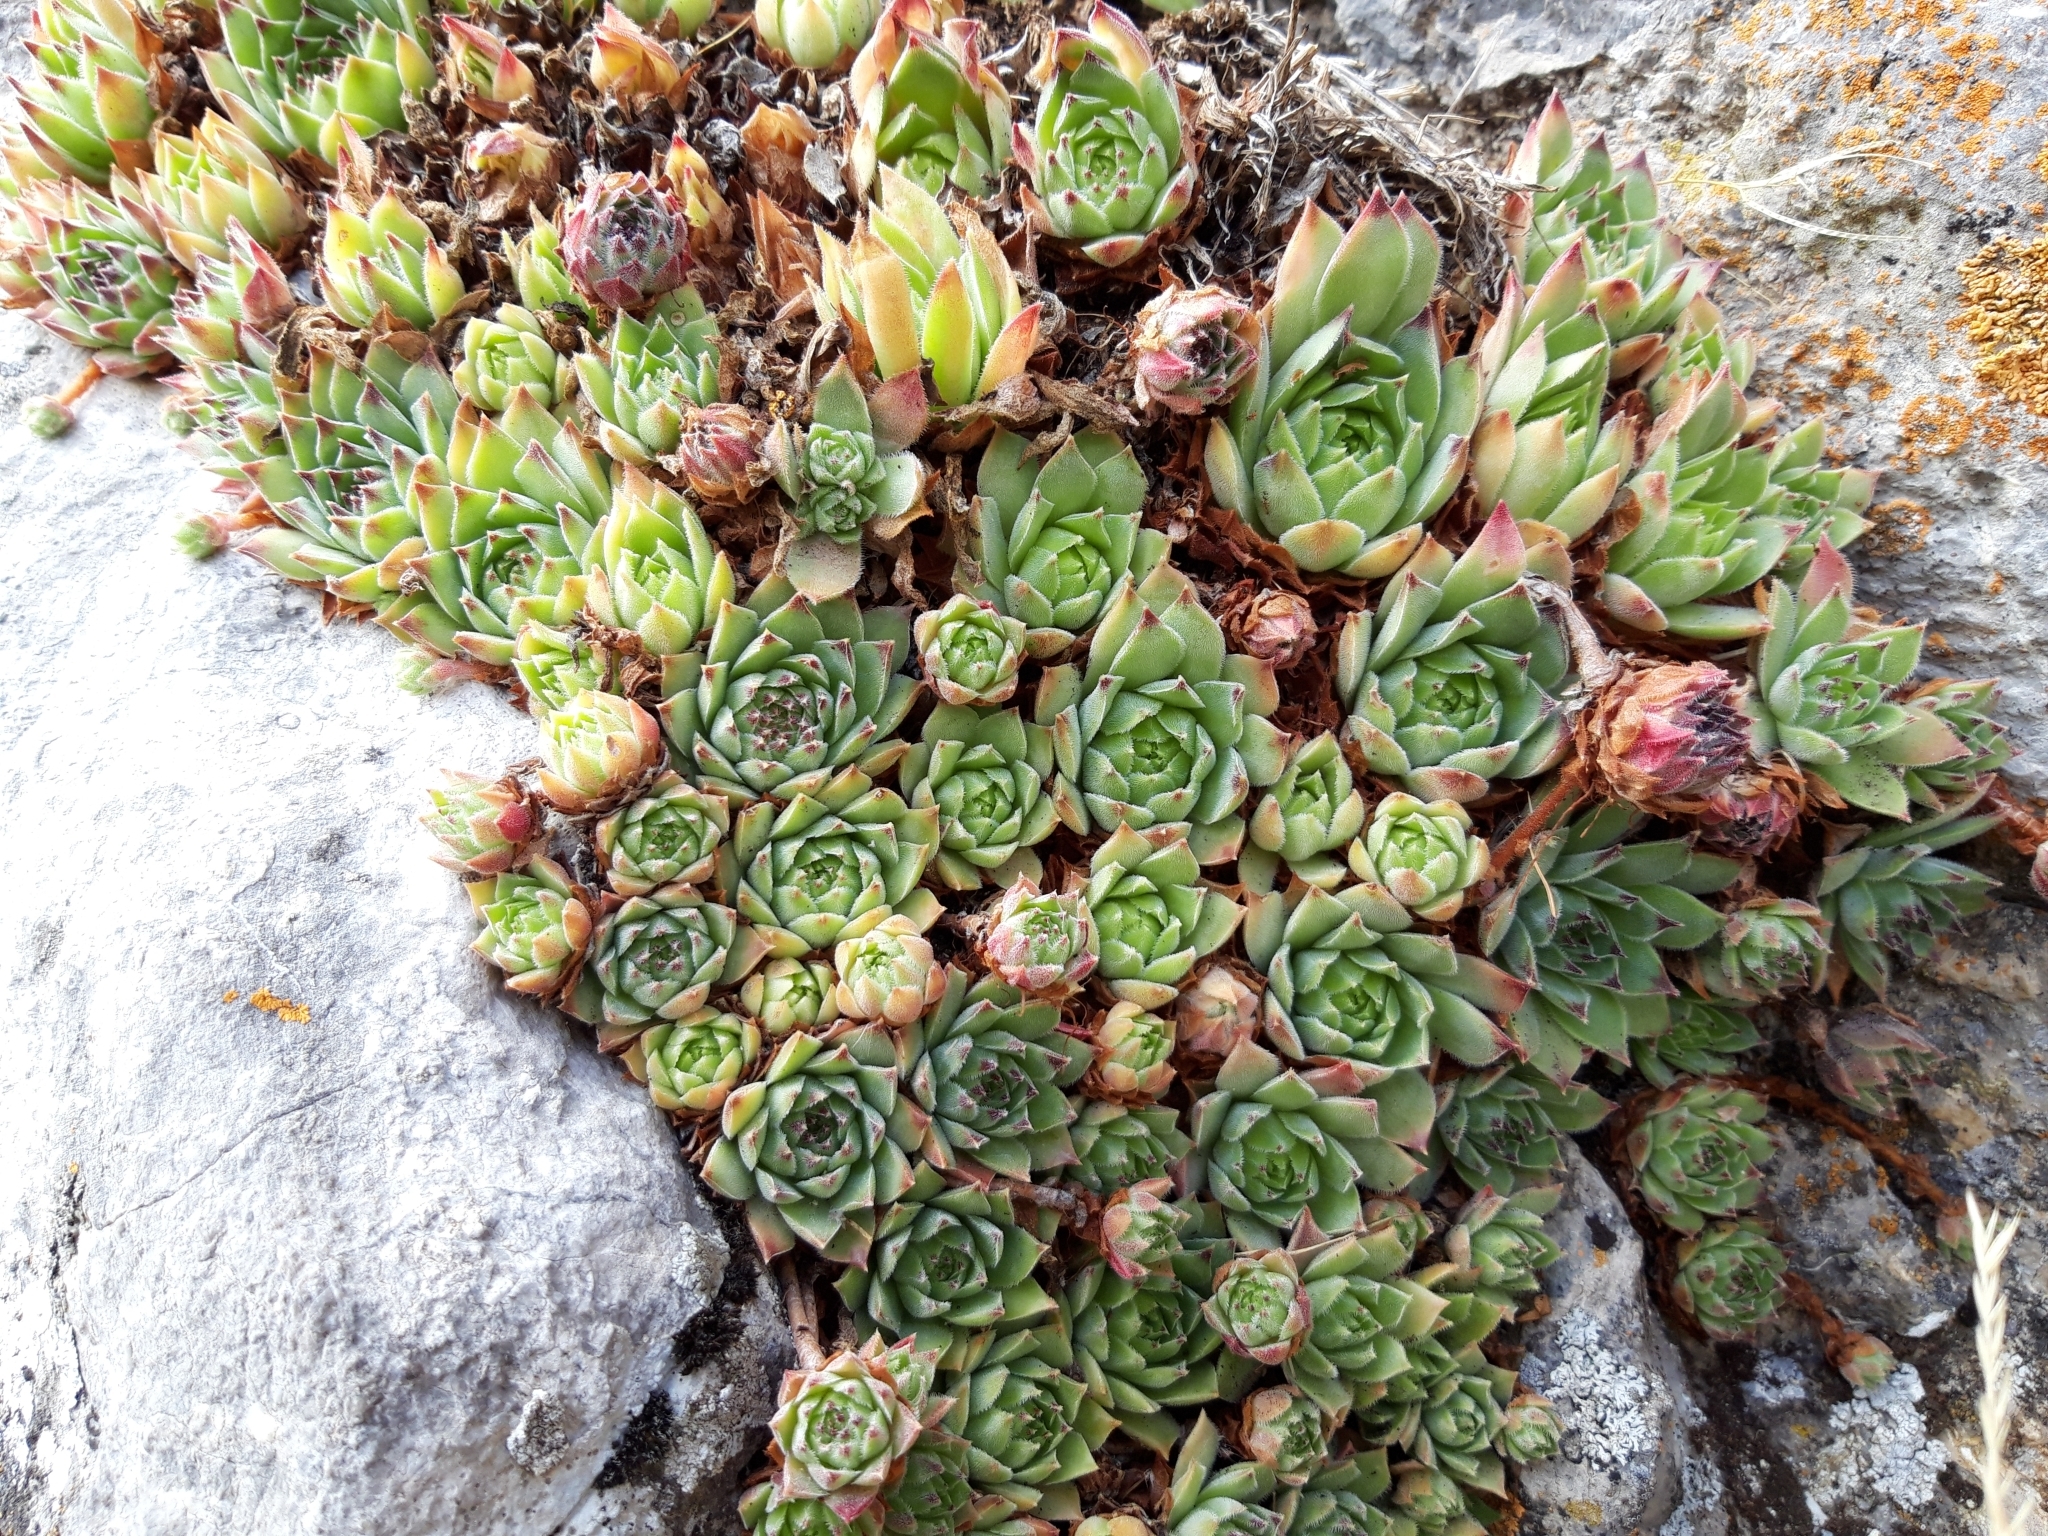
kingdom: Plantae
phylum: Tracheophyta
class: Magnoliopsida
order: Saxifragales
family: Crassulaceae
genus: Sempervivum
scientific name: Sempervivum vicentei
